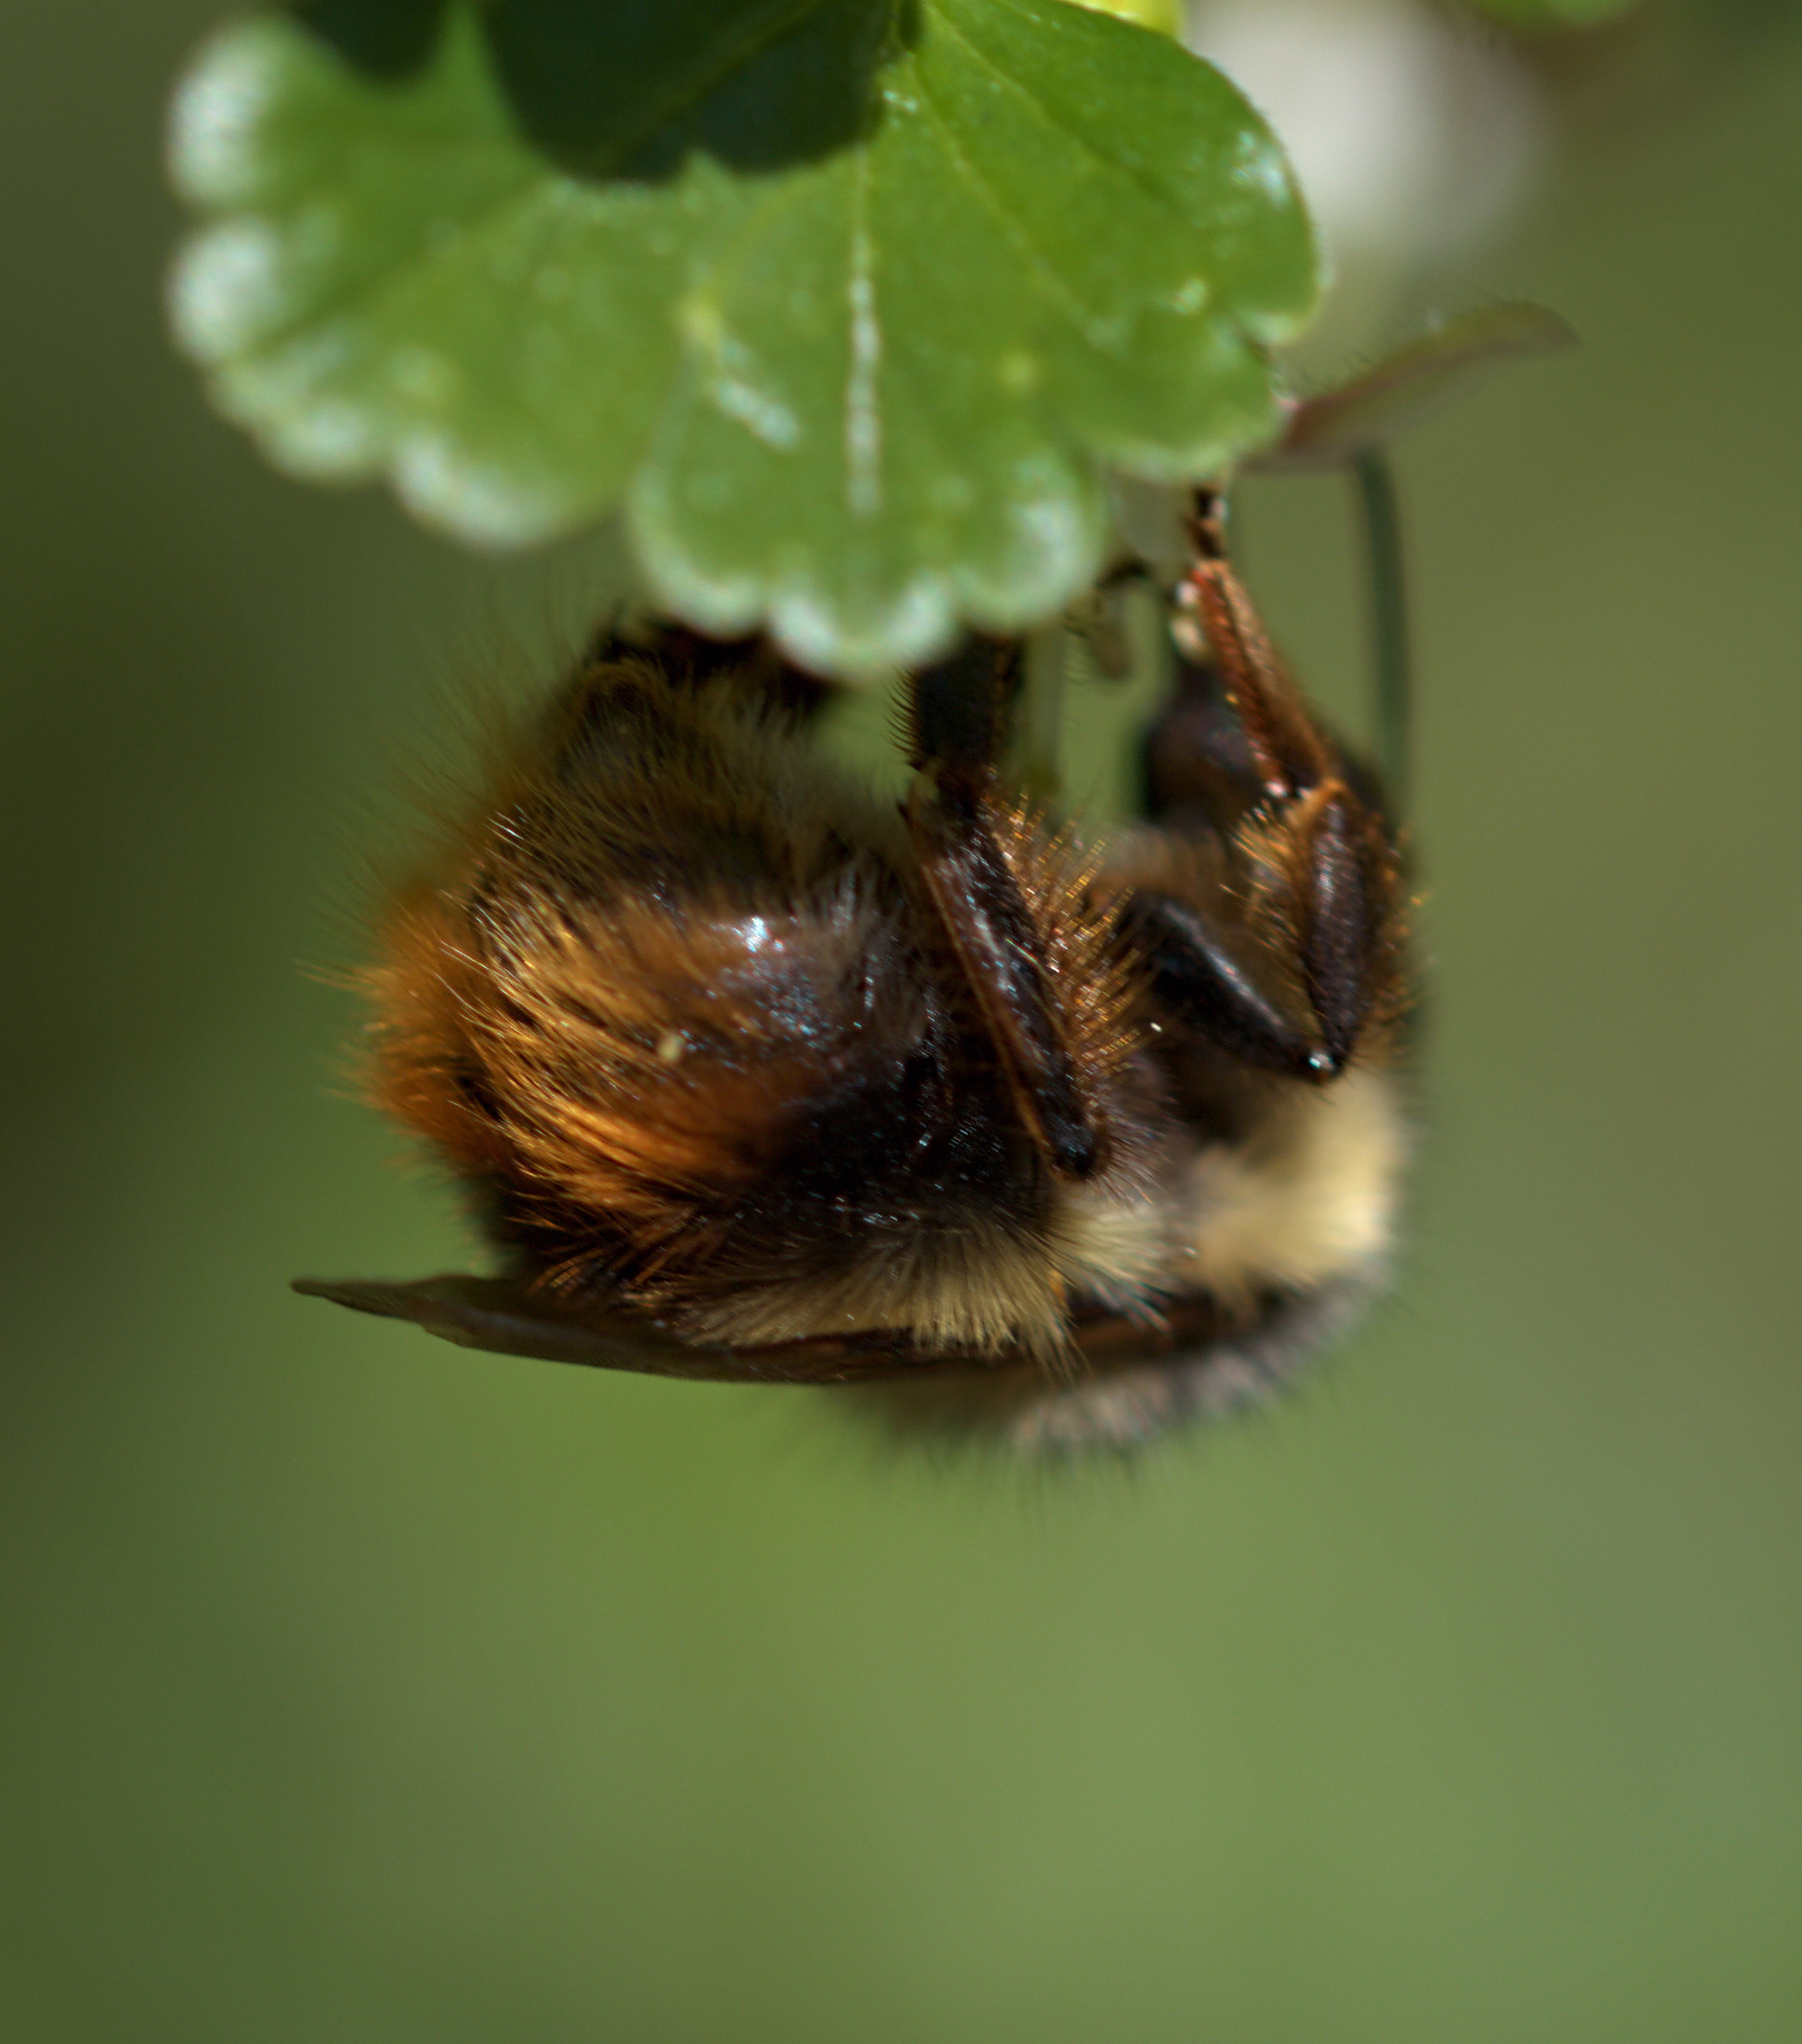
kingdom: Animalia
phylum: Arthropoda
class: Insecta
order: Hymenoptera
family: Apidae
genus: Bombus
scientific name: Bombus mixtus
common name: Fuzzy-horned bumble bee
